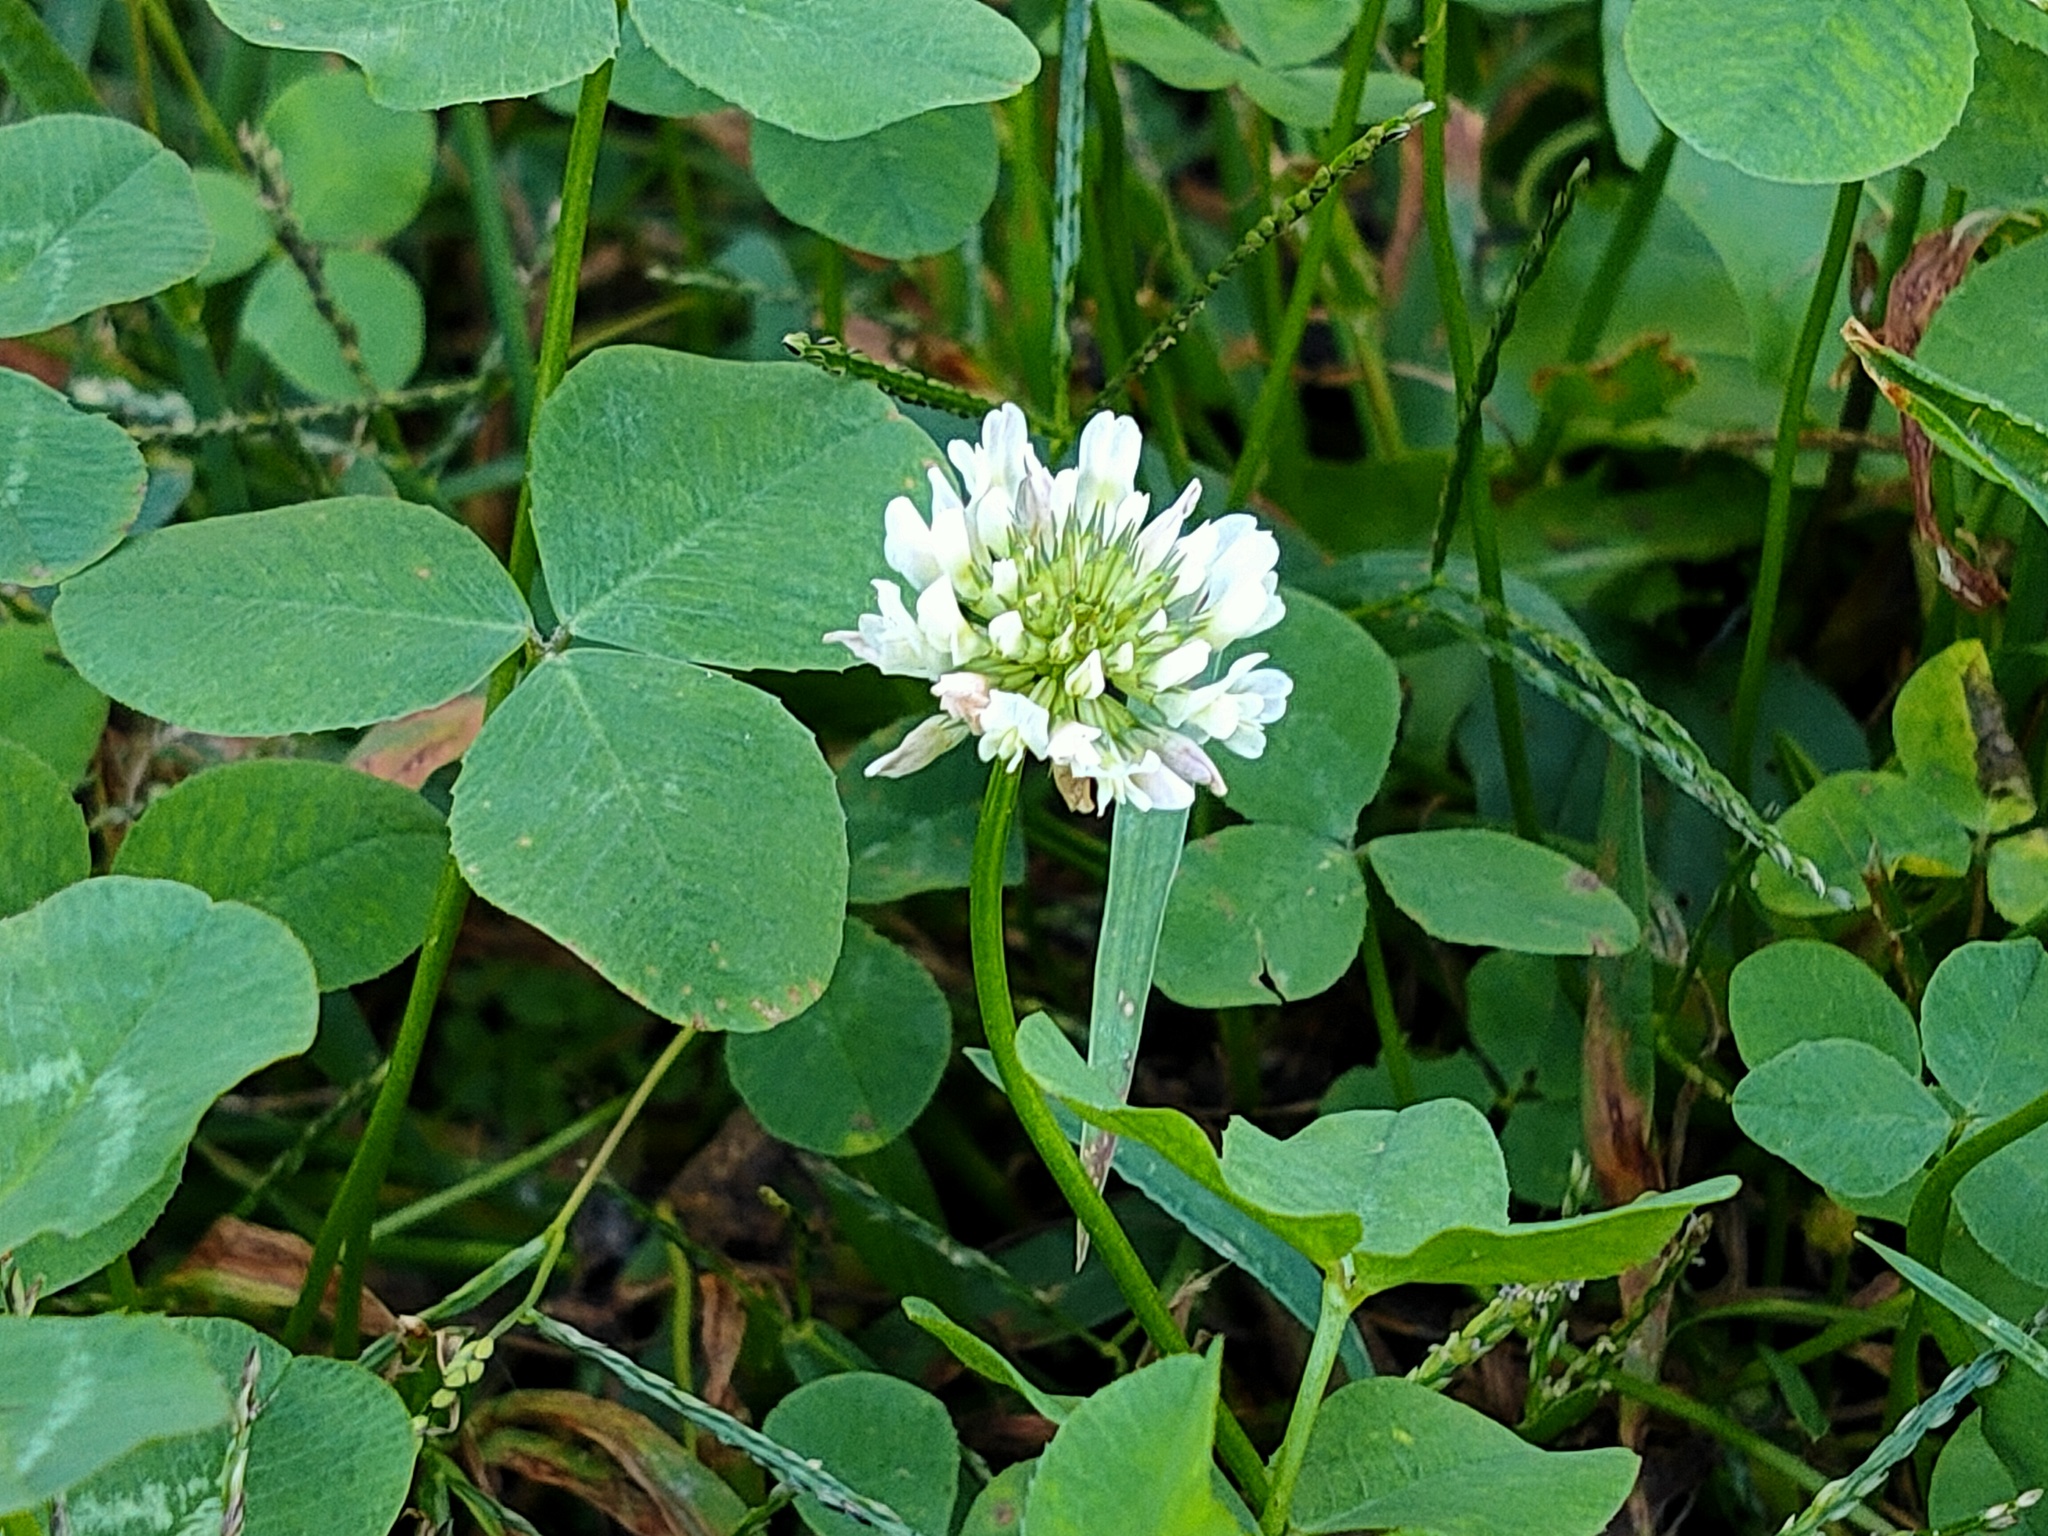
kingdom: Plantae
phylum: Tracheophyta
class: Magnoliopsida
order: Fabales
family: Fabaceae
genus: Trifolium
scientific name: Trifolium repens
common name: White clover
